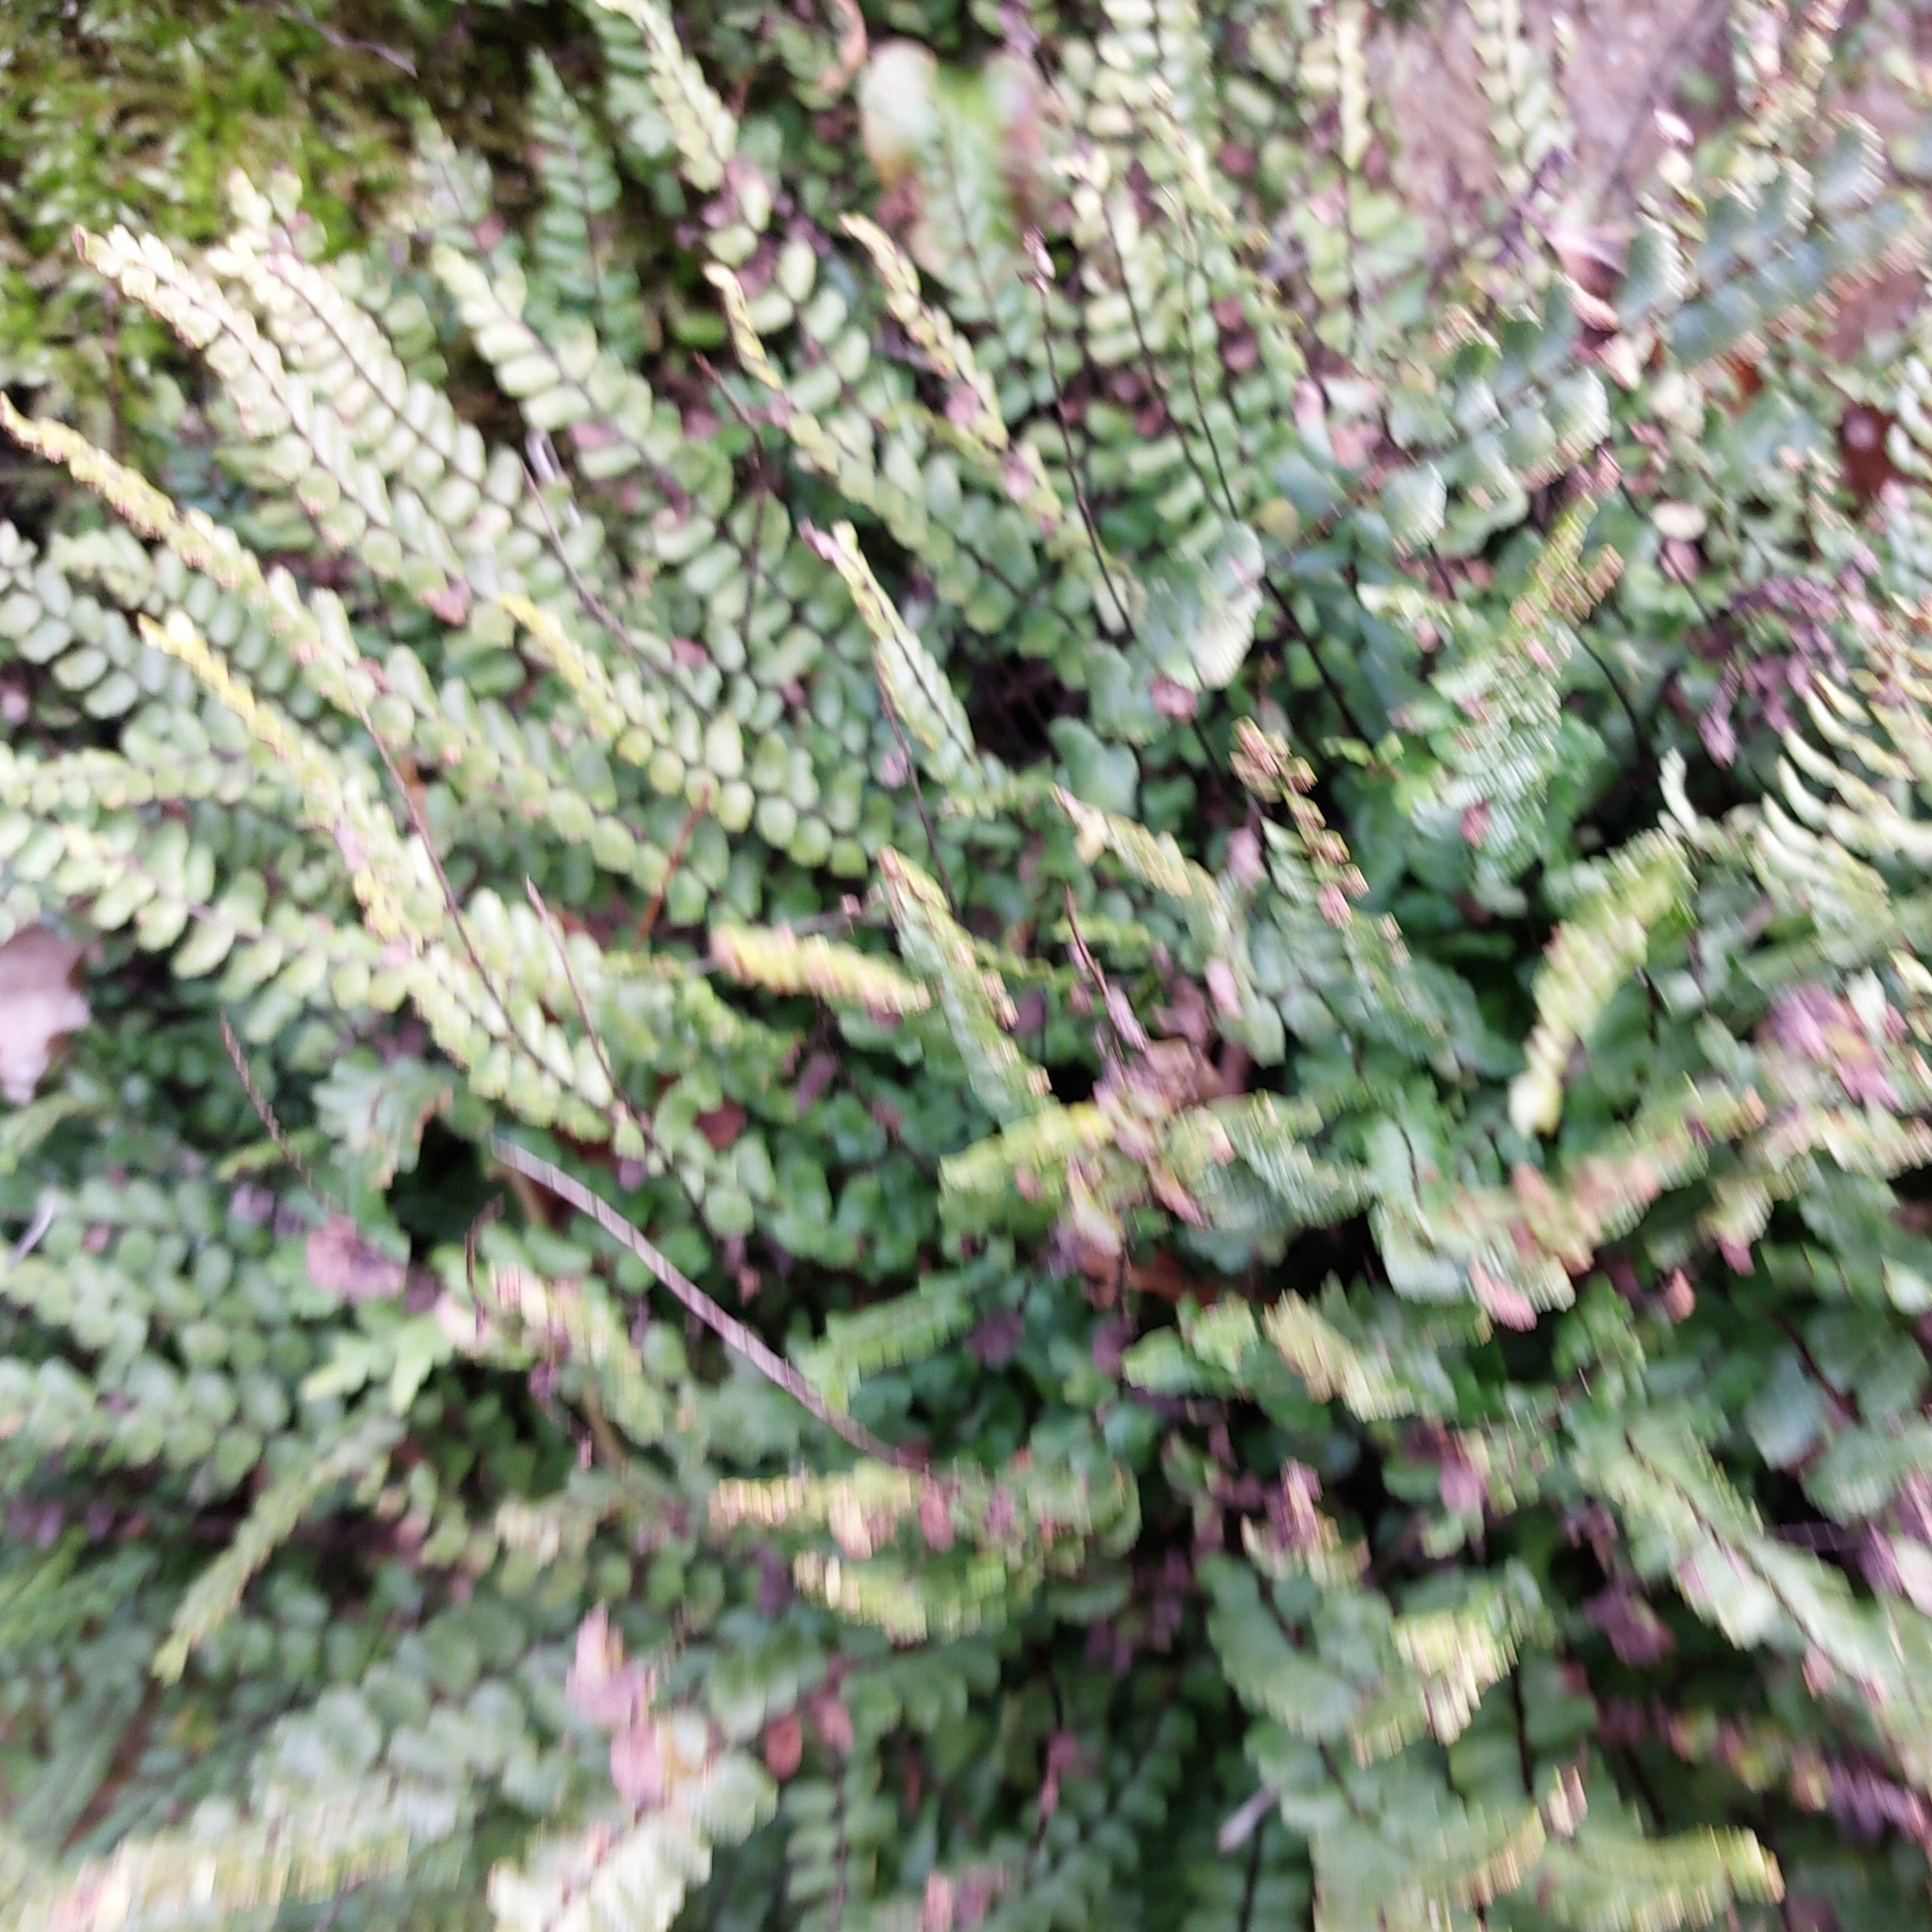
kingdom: Plantae
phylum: Tracheophyta
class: Polypodiopsida
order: Polypodiales
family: Aspleniaceae
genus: Asplenium
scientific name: Asplenium trichomanes
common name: Maidenhair spleenwort
